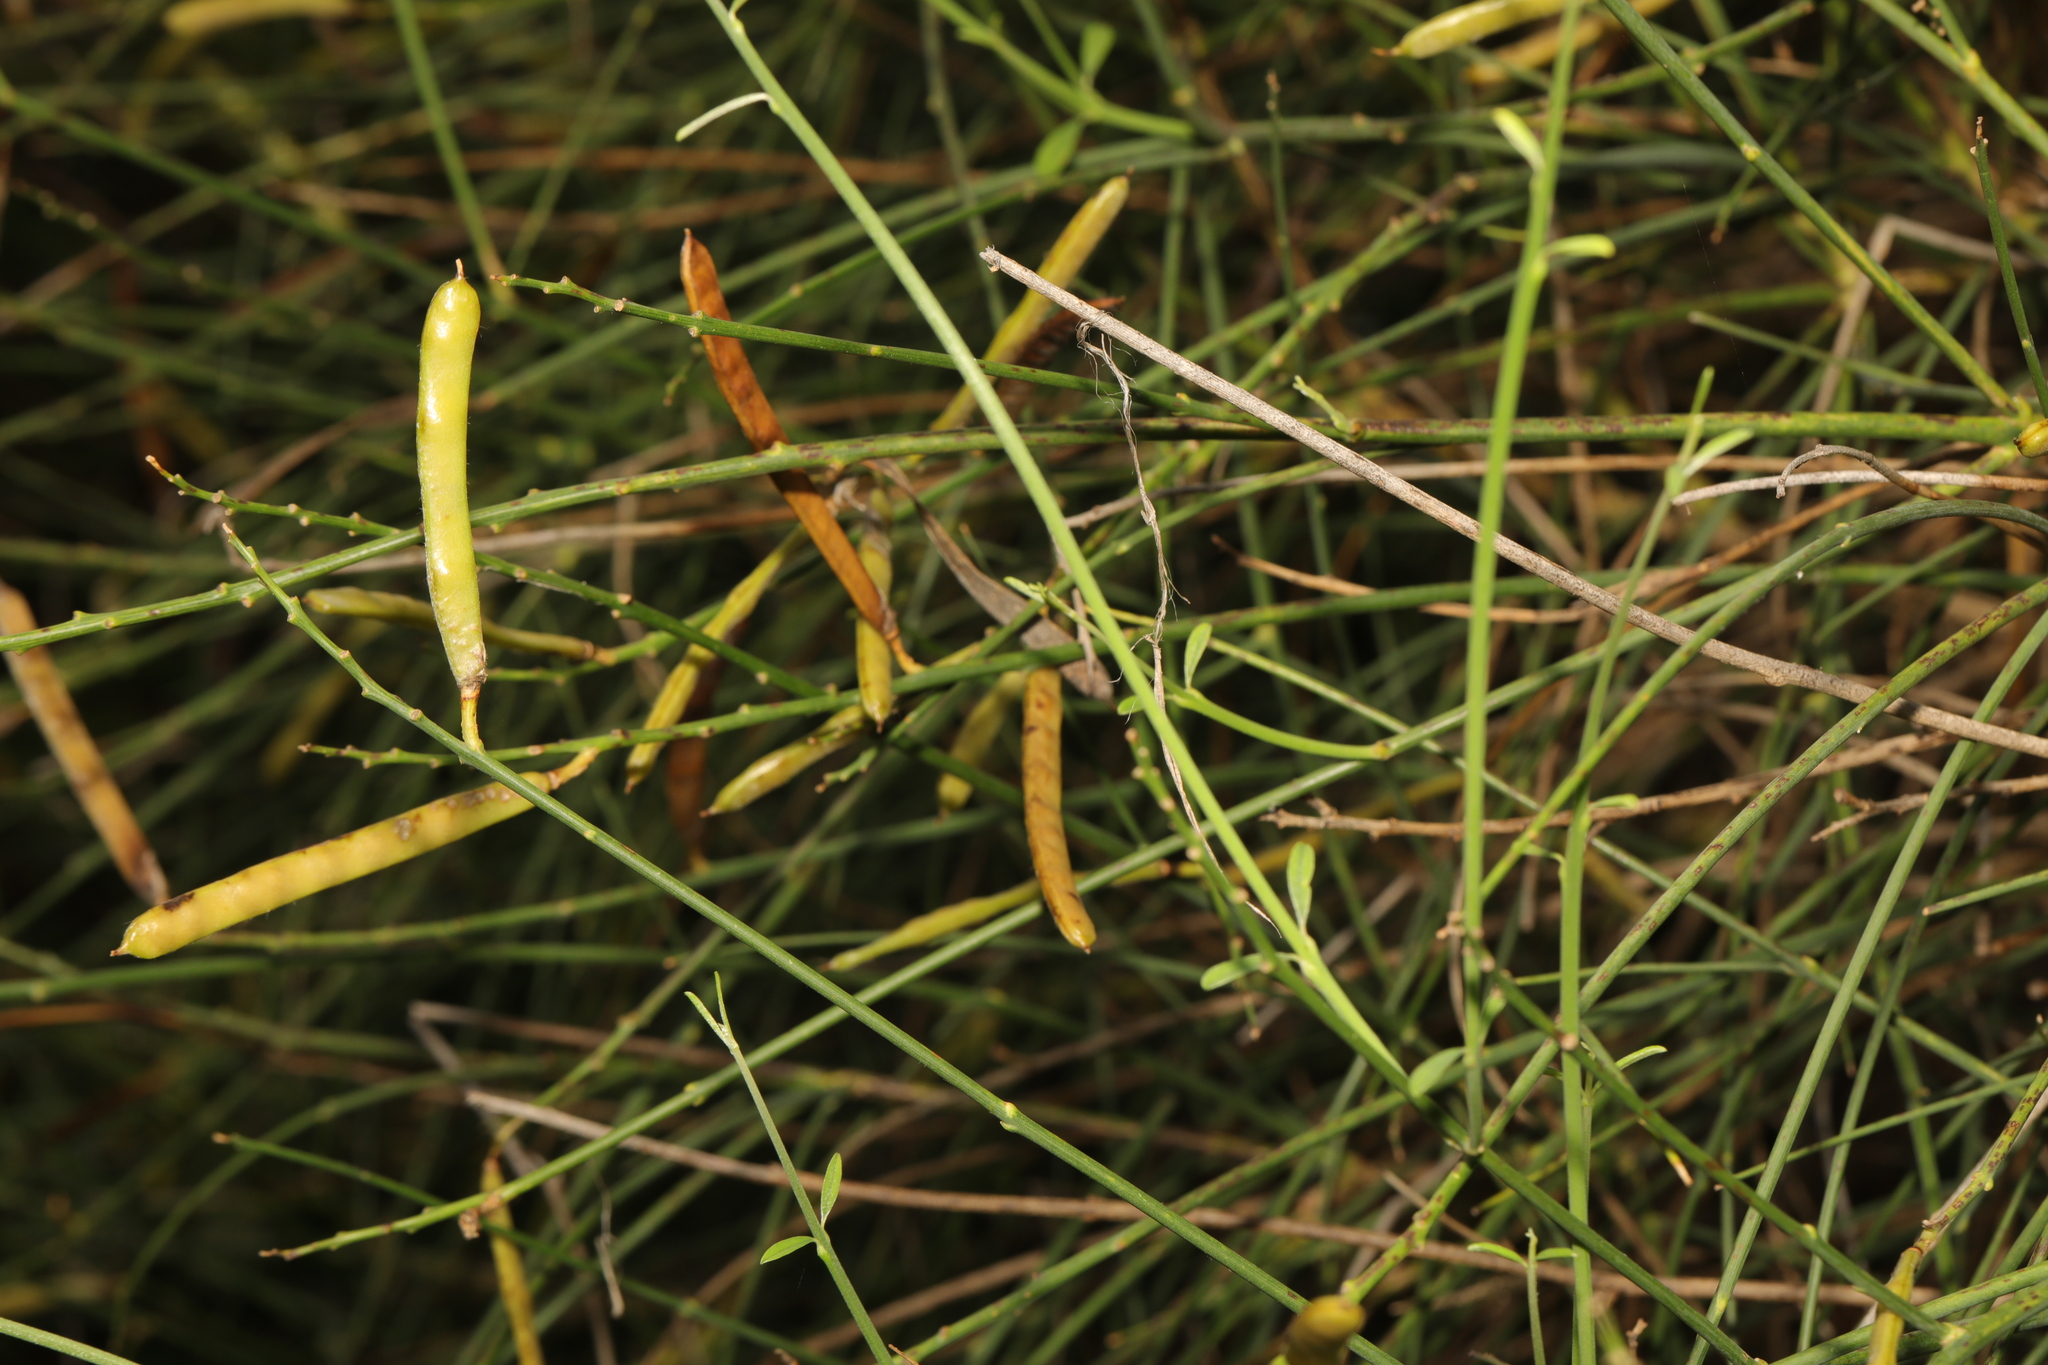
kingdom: Plantae
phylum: Tracheophyta
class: Magnoliopsida
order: Fabales
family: Fabaceae
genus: Spartium
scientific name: Spartium junceum
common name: Spanish broom
